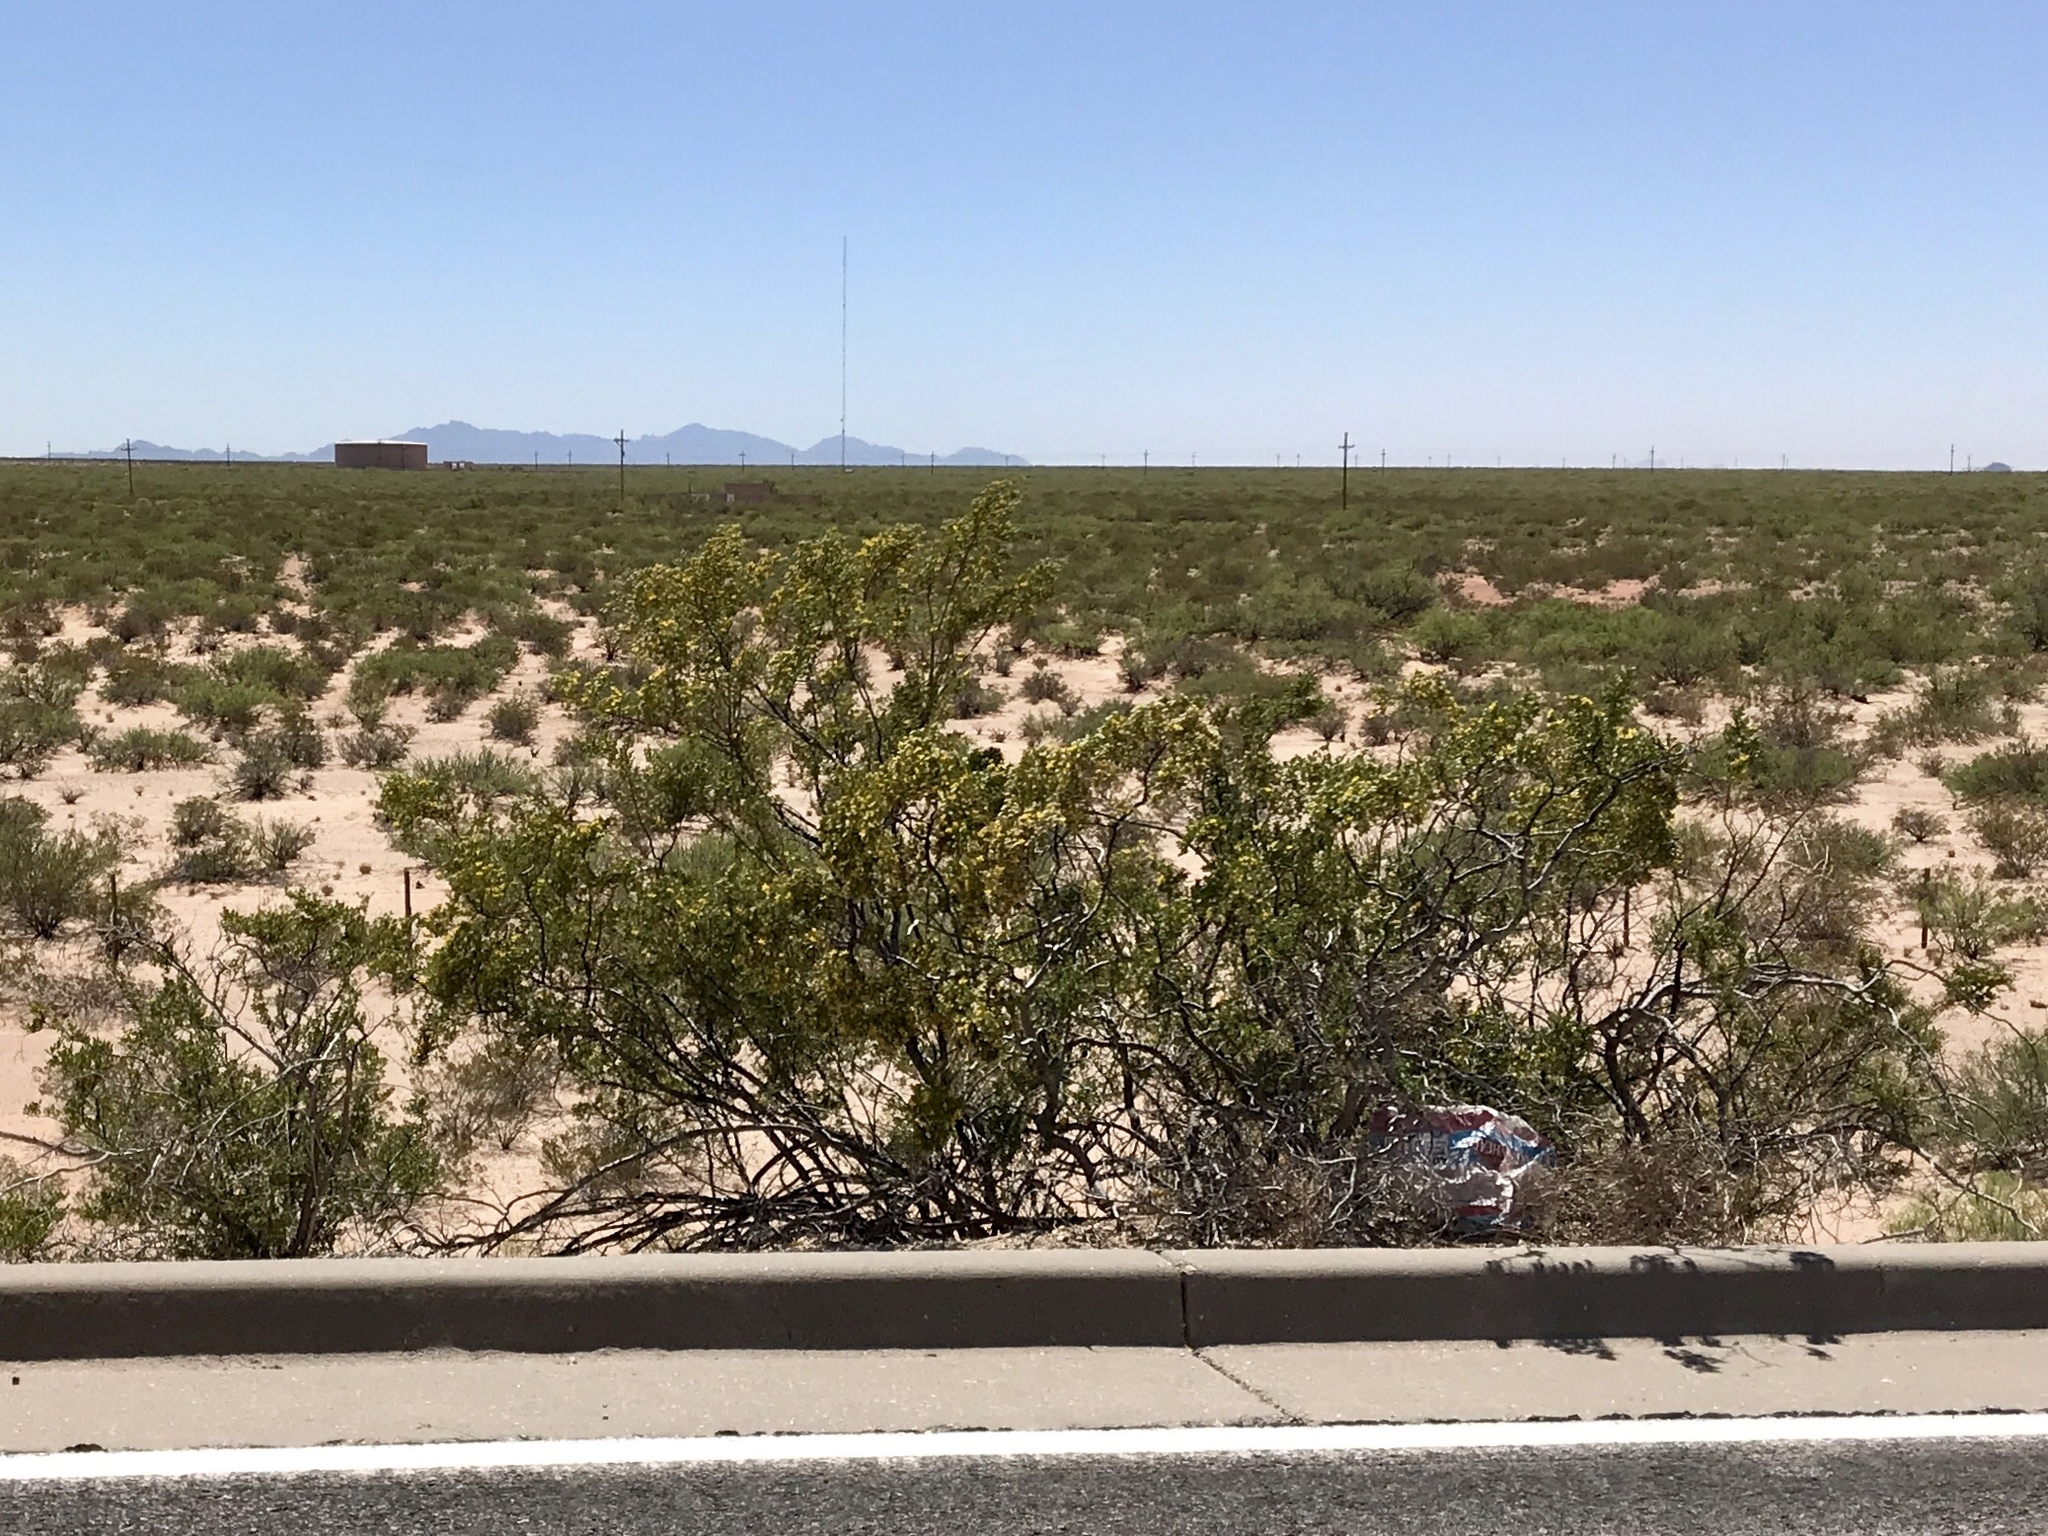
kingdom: Plantae
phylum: Tracheophyta
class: Magnoliopsida
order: Zygophyllales
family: Zygophyllaceae
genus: Larrea
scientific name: Larrea tridentata
